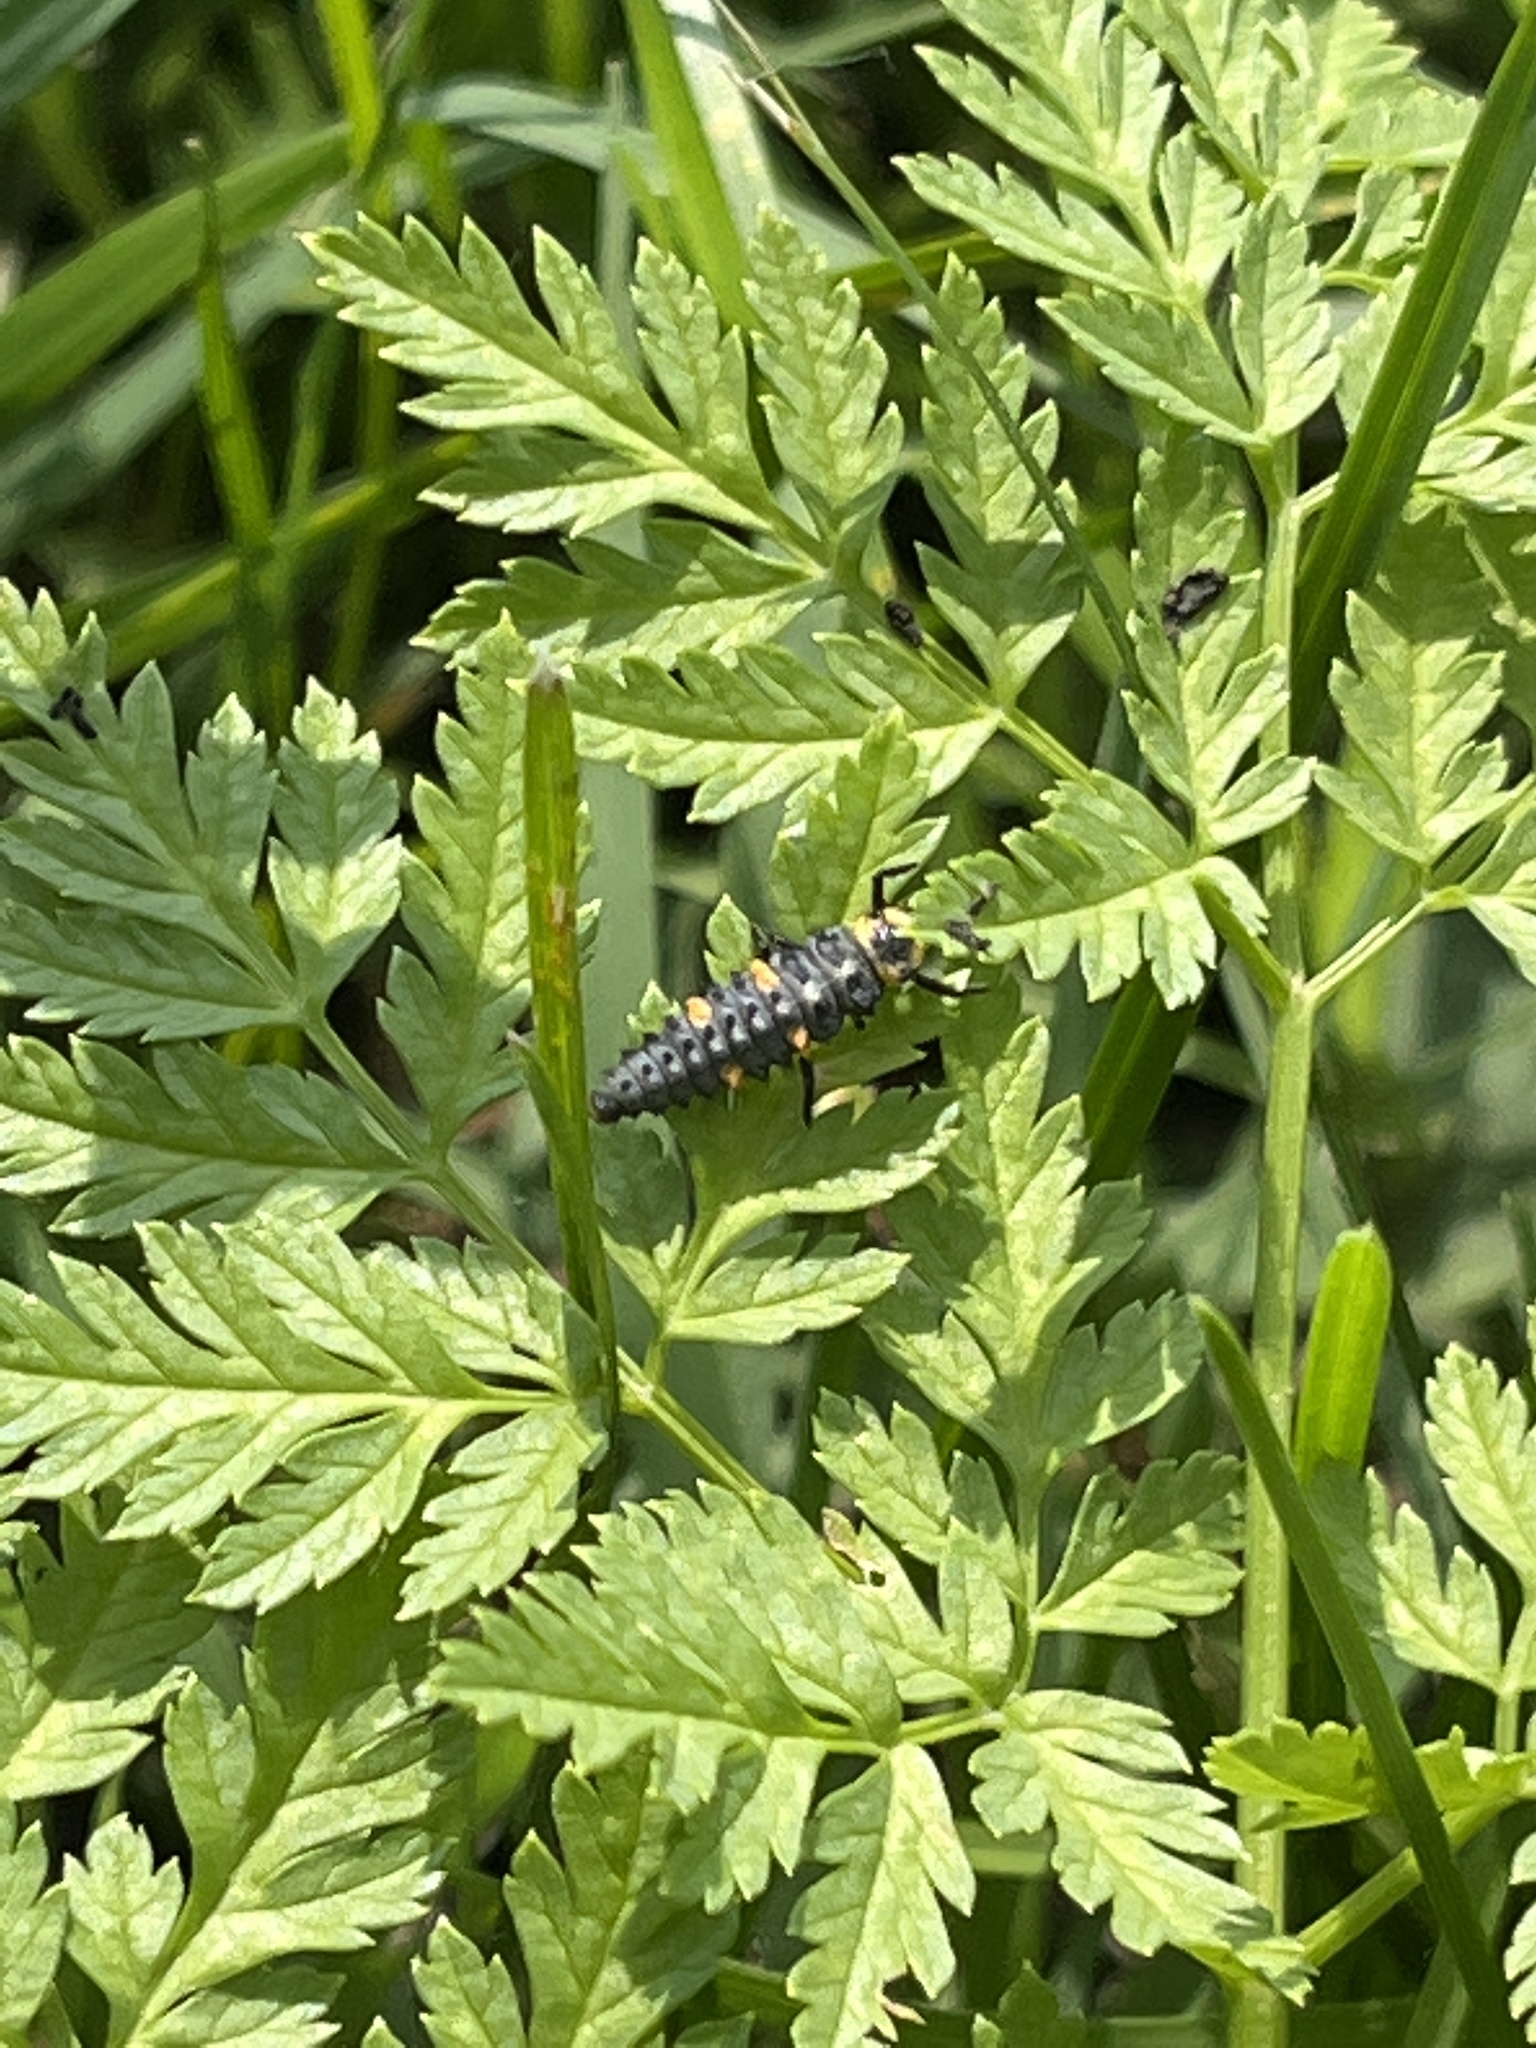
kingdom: Animalia
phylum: Arthropoda
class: Insecta
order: Coleoptera
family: Coccinellidae
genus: Coccinella
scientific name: Coccinella septempunctata
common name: Sevenspotted lady beetle
